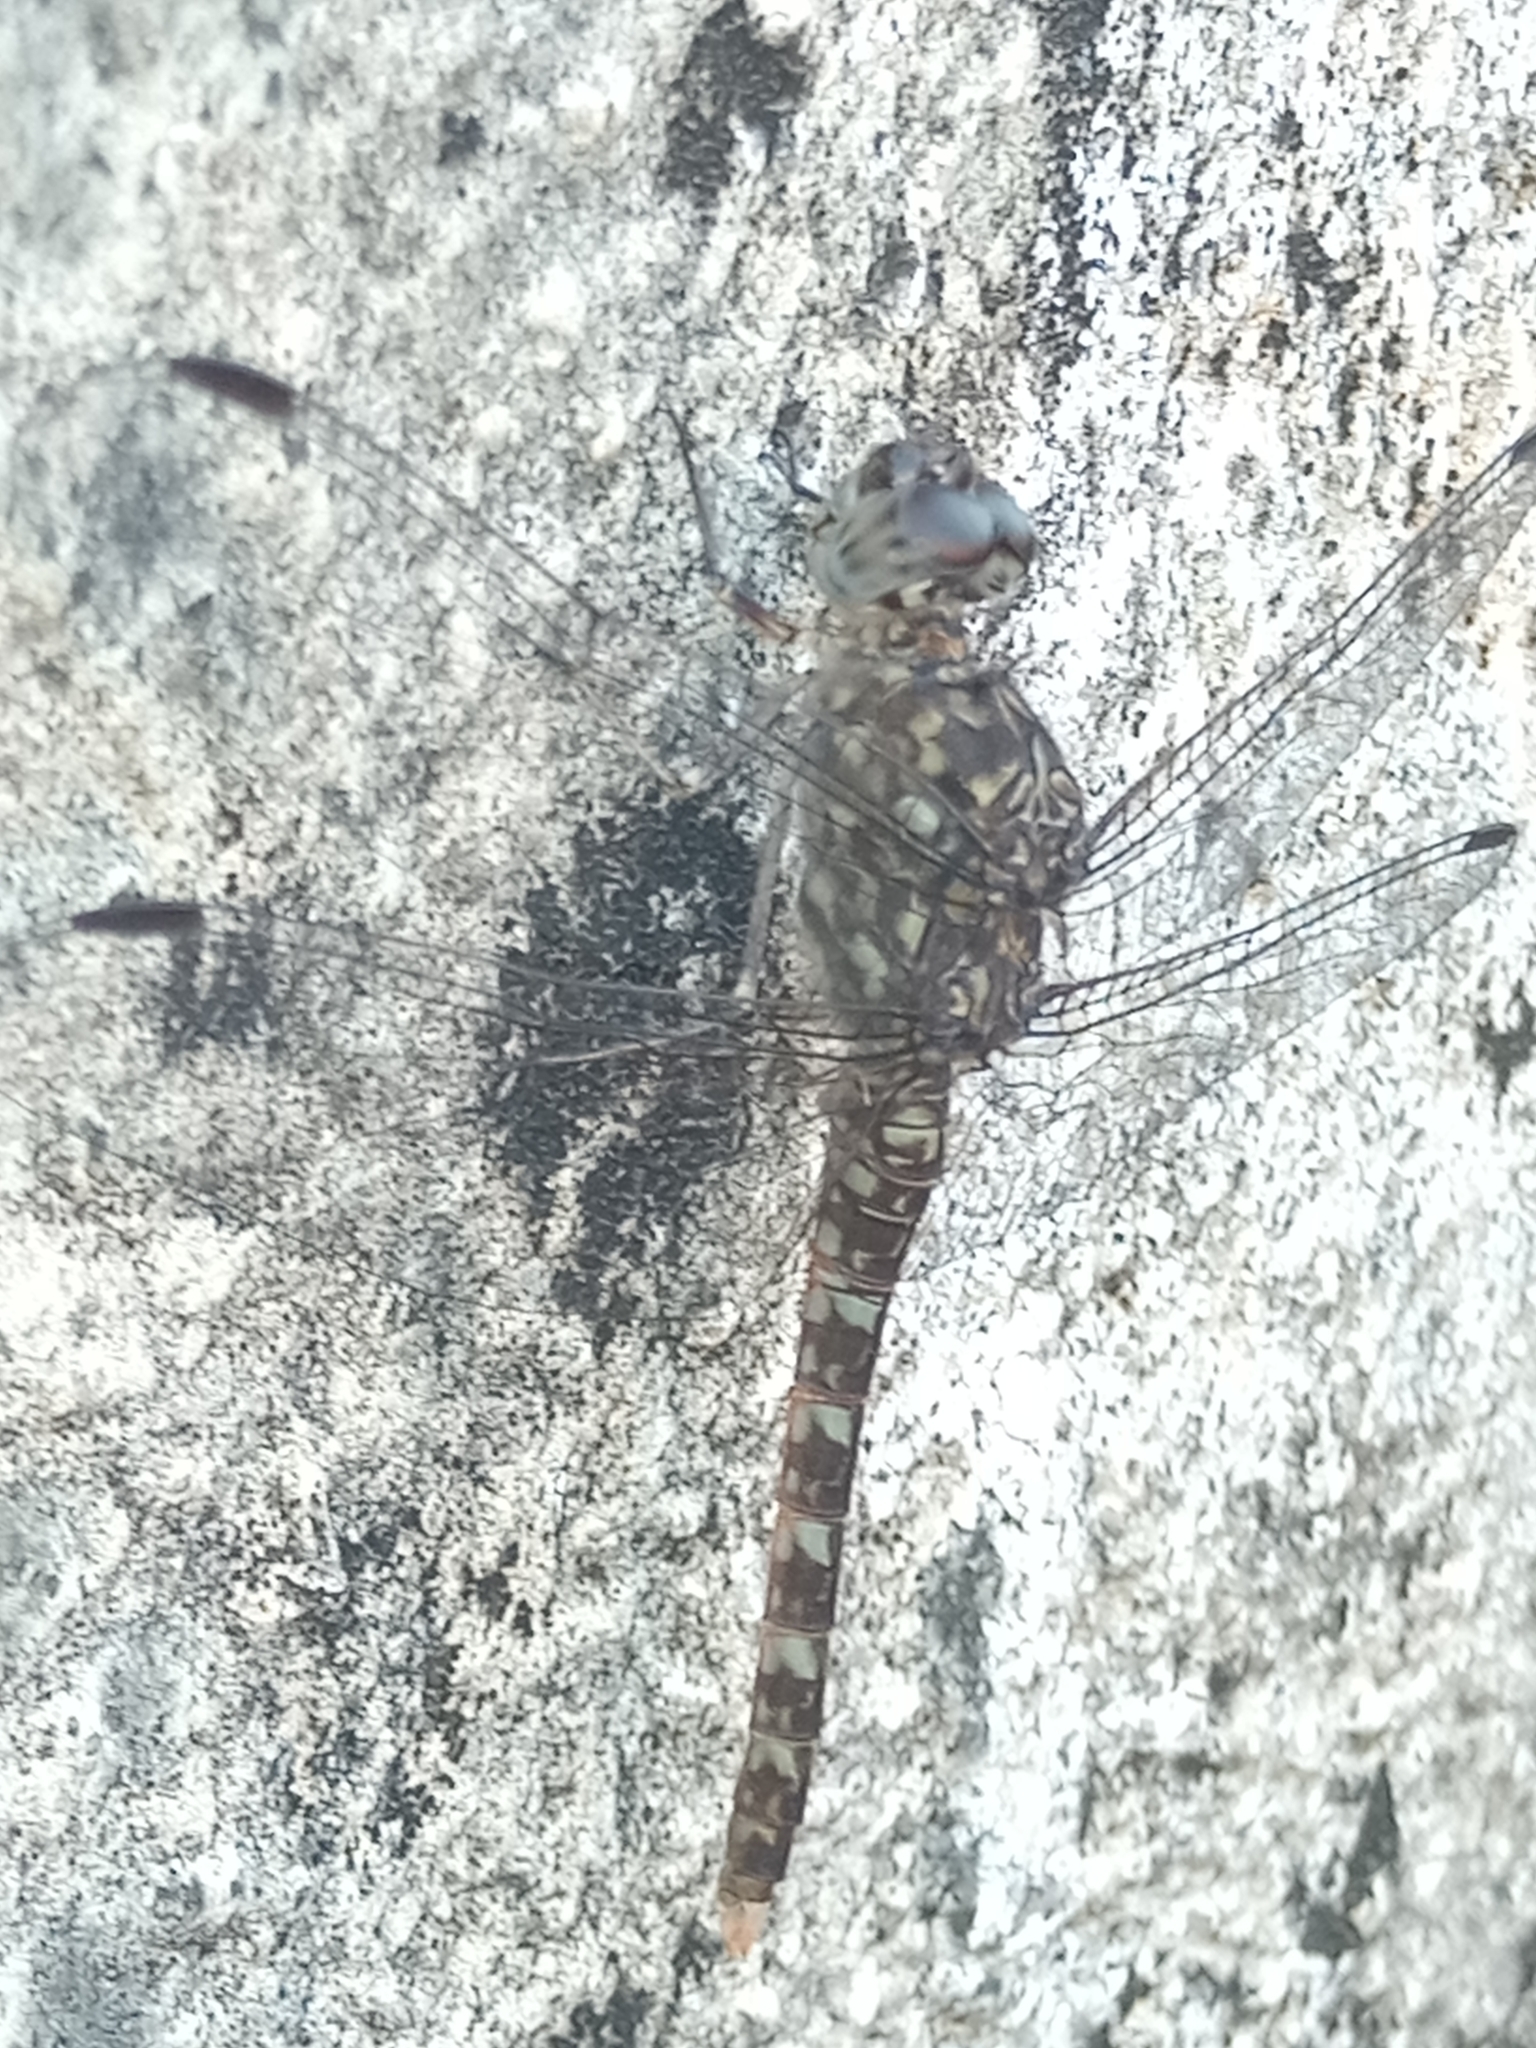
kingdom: Animalia
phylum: Arthropoda
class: Insecta
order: Odonata
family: Libellulidae
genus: Bradinopyga
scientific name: Bradinopyga strachani
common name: Red rock-dweller
